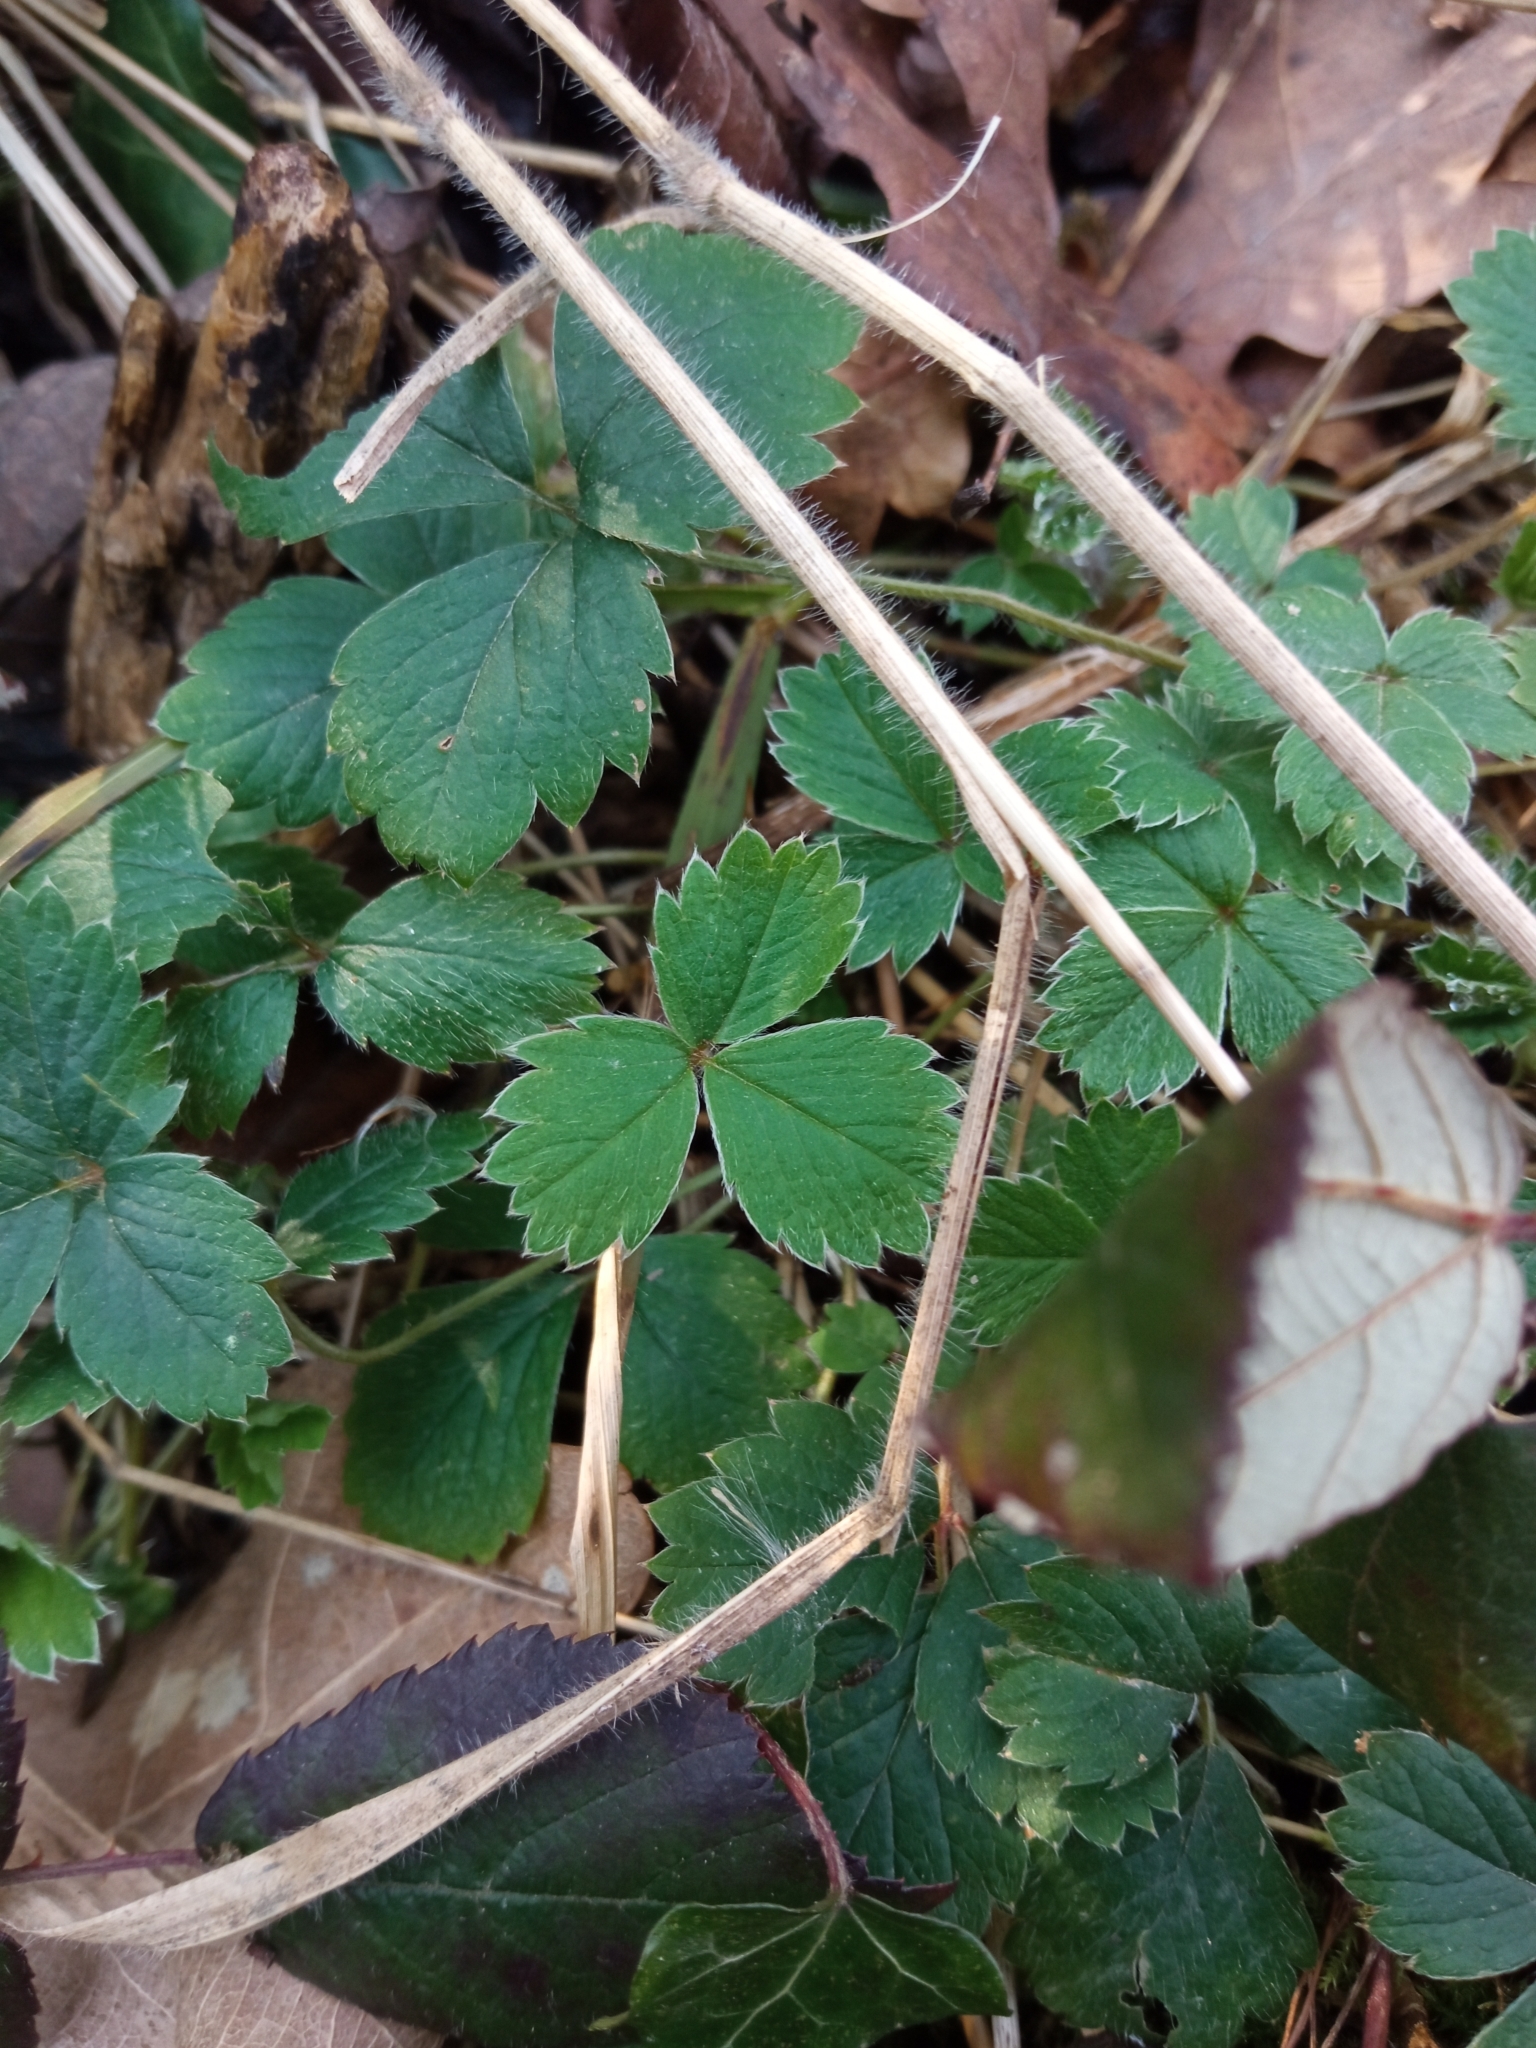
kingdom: Plantae
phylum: Tracheophyta
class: Magnoliopsida
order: Rosales
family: Rosaceae
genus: Potentilla
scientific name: Potentilla sterilis
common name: Barren strawberry
